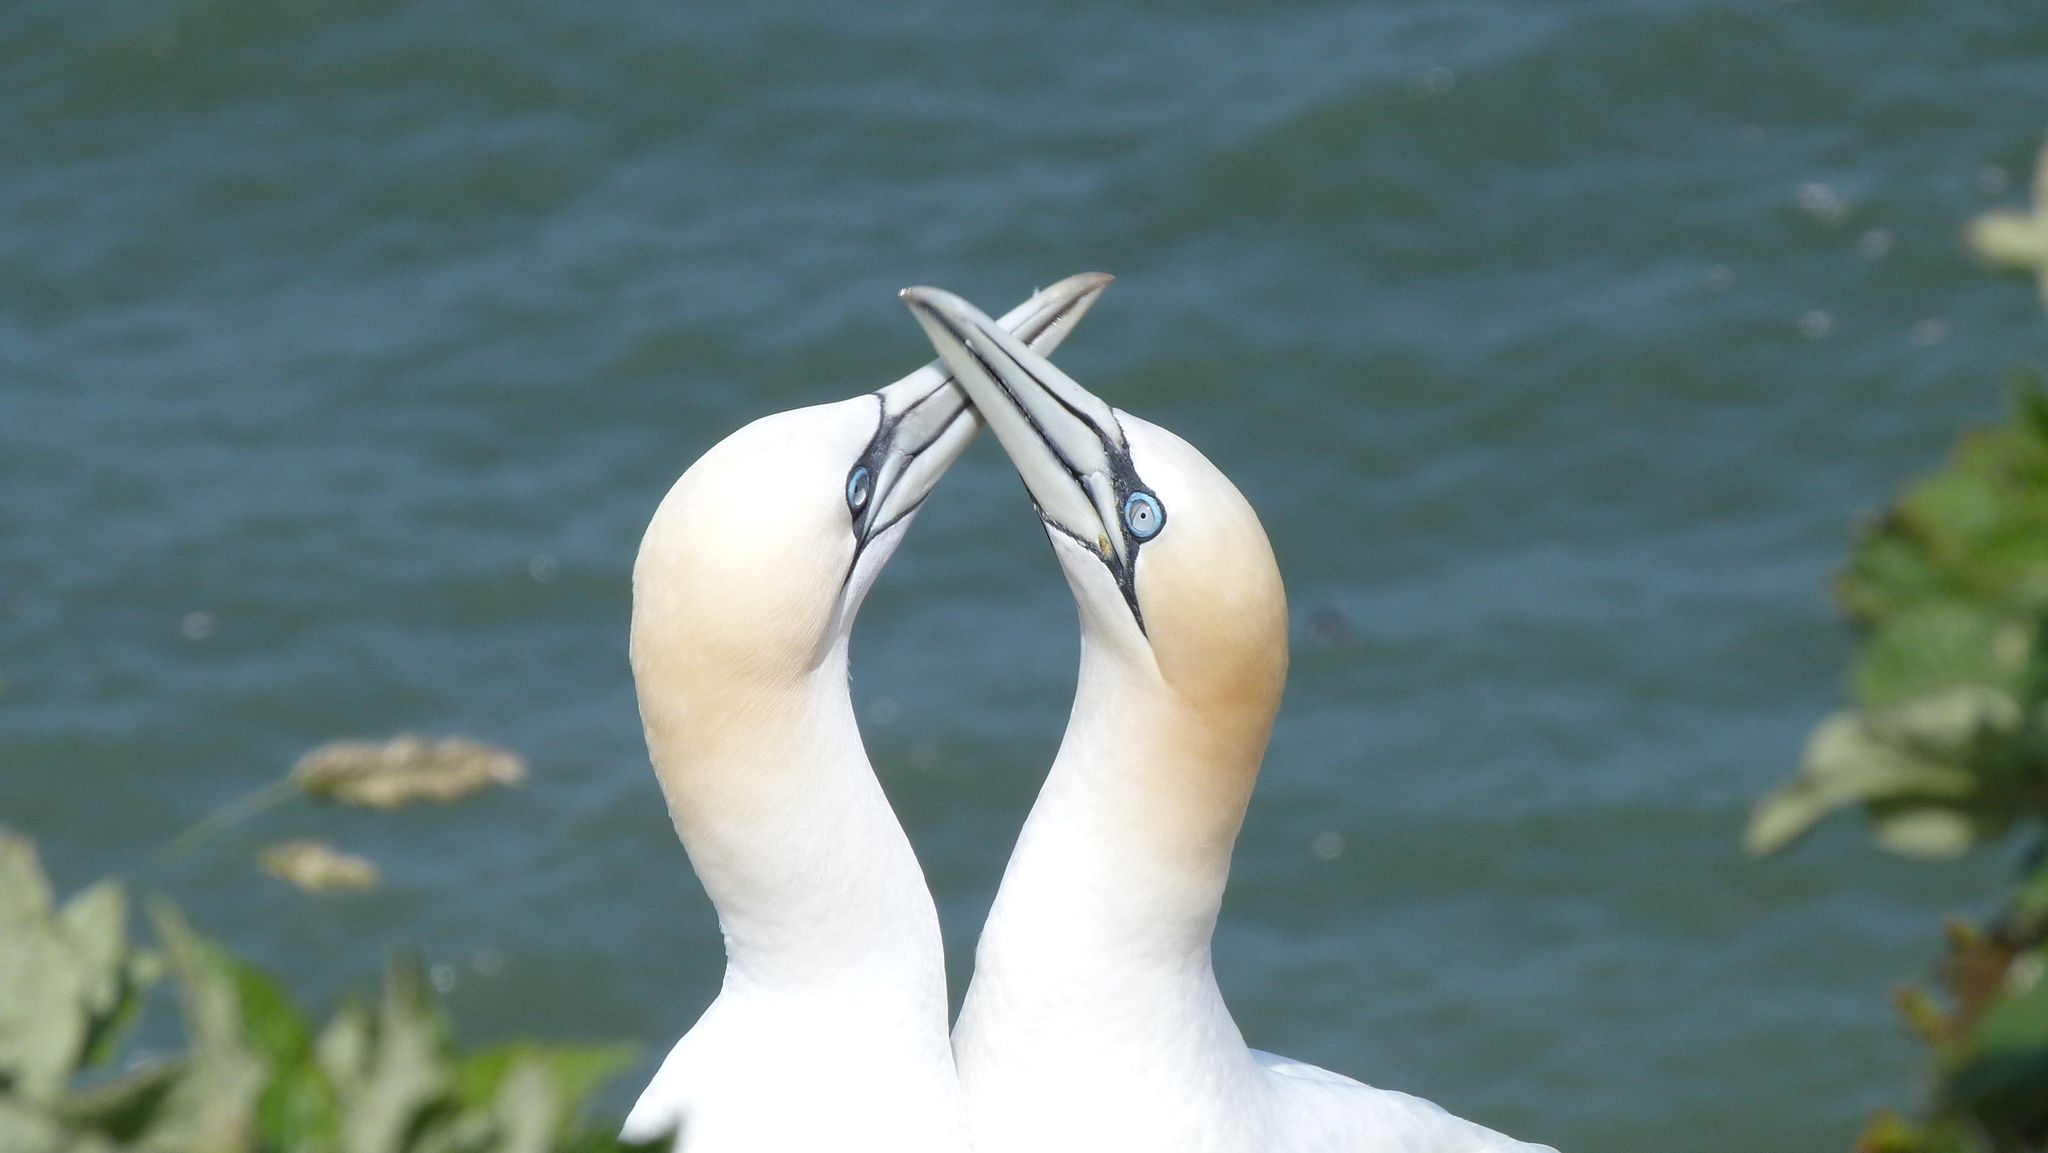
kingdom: Animalia
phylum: Chordata
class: Aves
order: Suliformes
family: Sulidae
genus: Morus
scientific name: Morus bassanus
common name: Northern gannet
